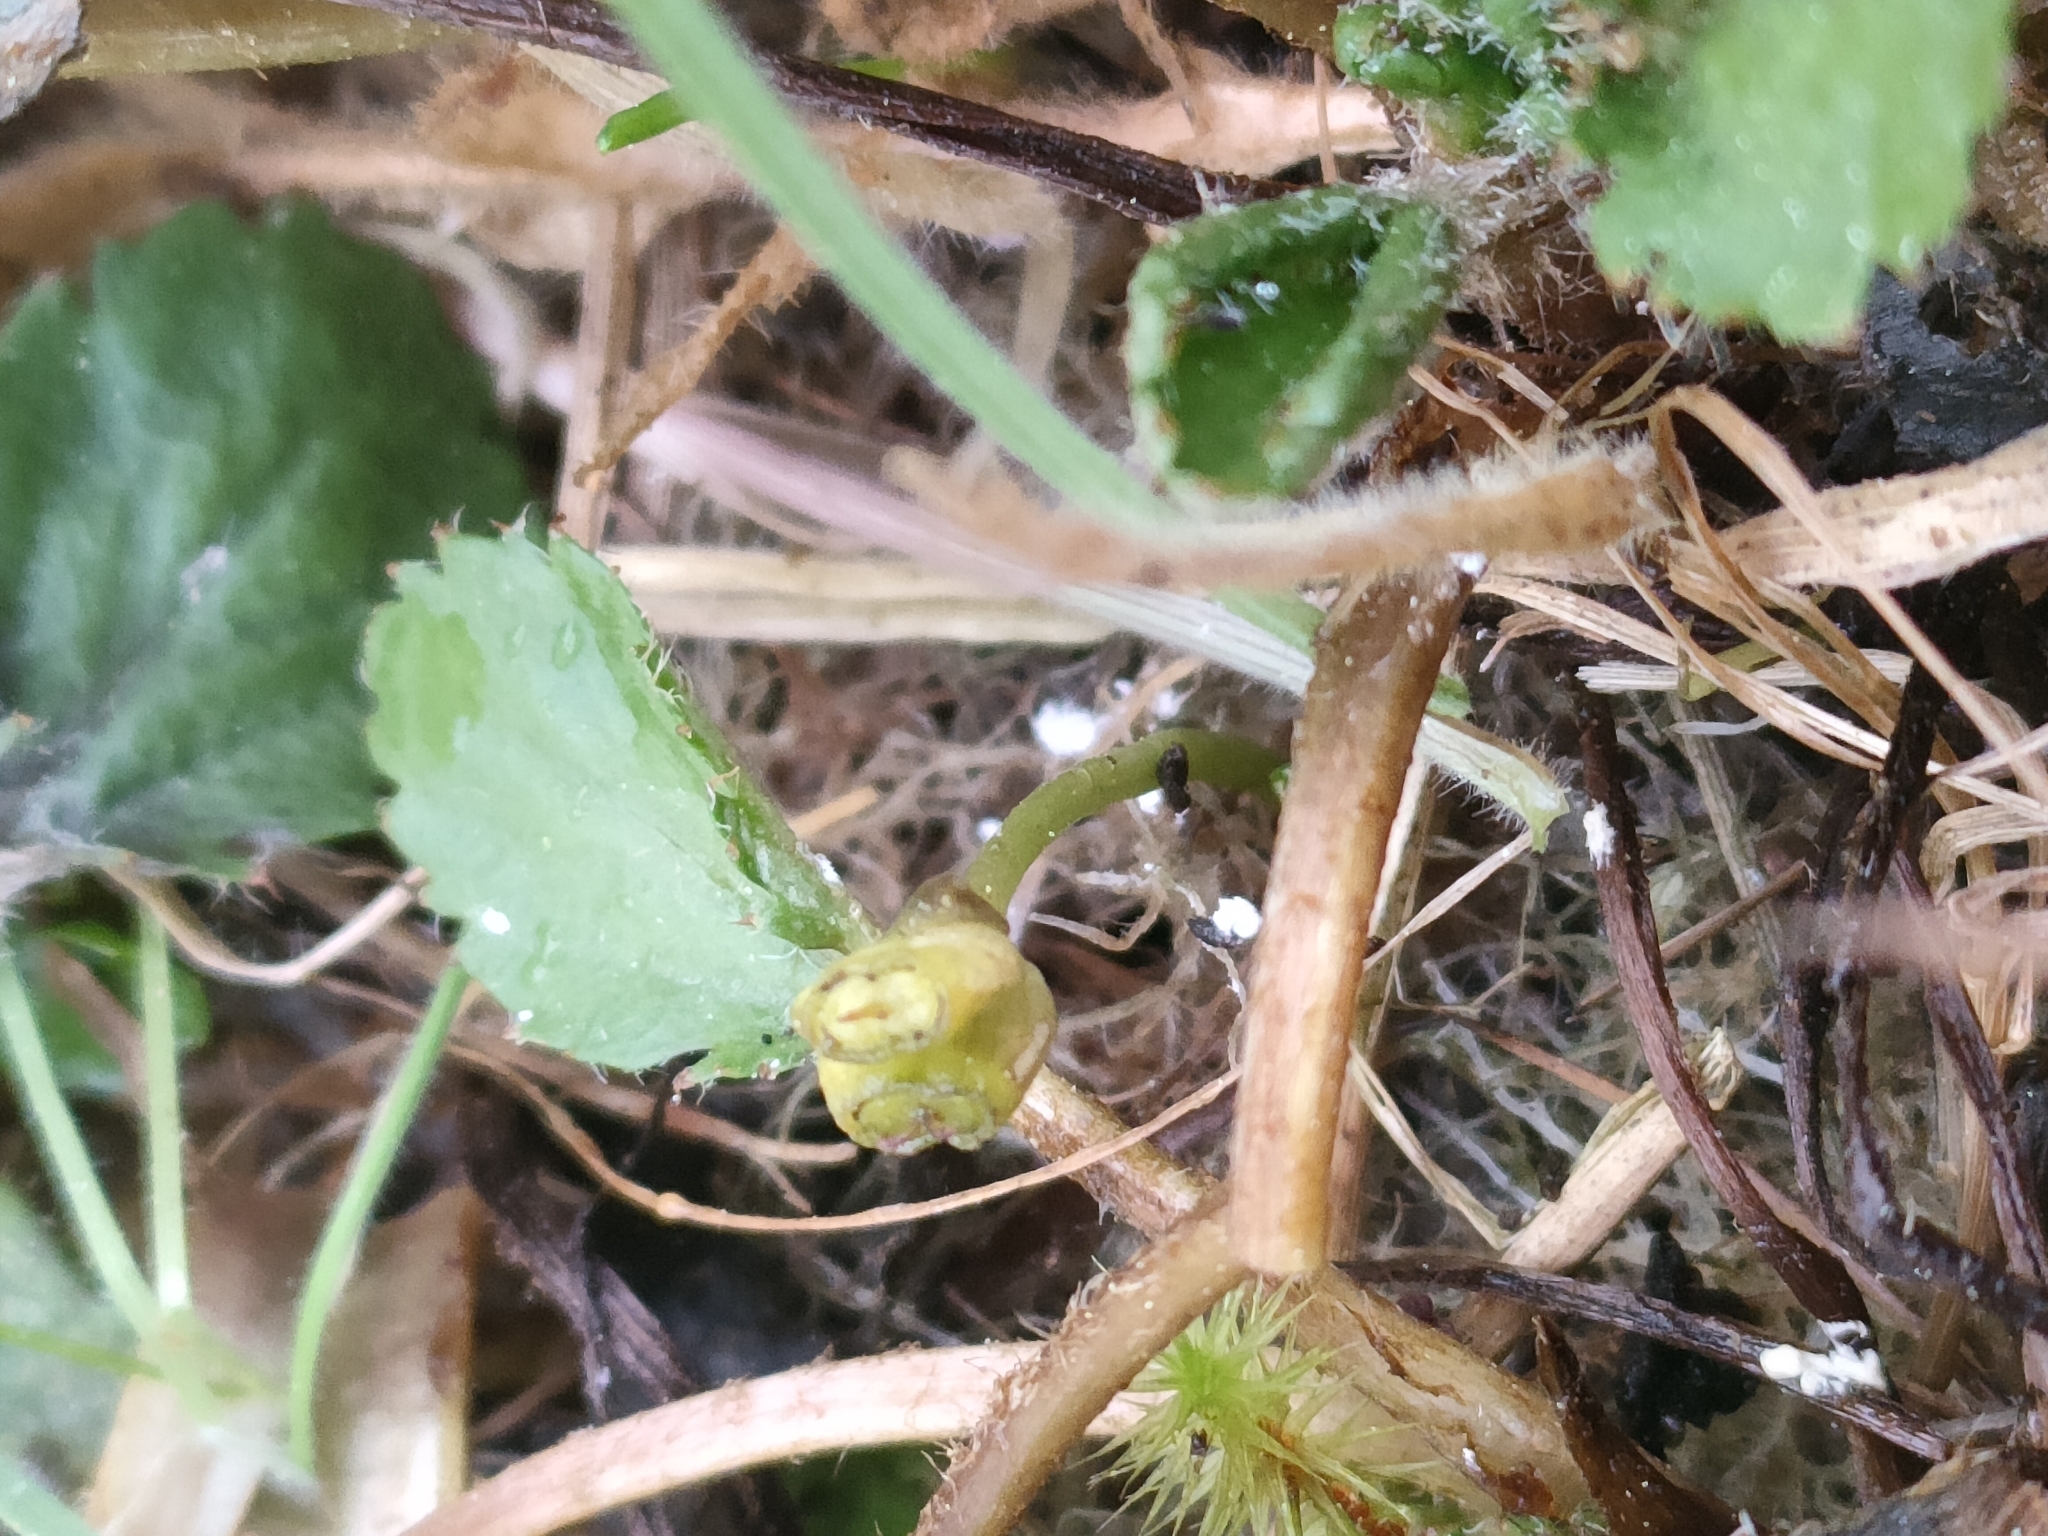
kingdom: Plantae
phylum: Tracheophyta
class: Magnoliopsida
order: Gunnerales
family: Gunneraceae
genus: Gunnera
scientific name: Gunnera dentata
